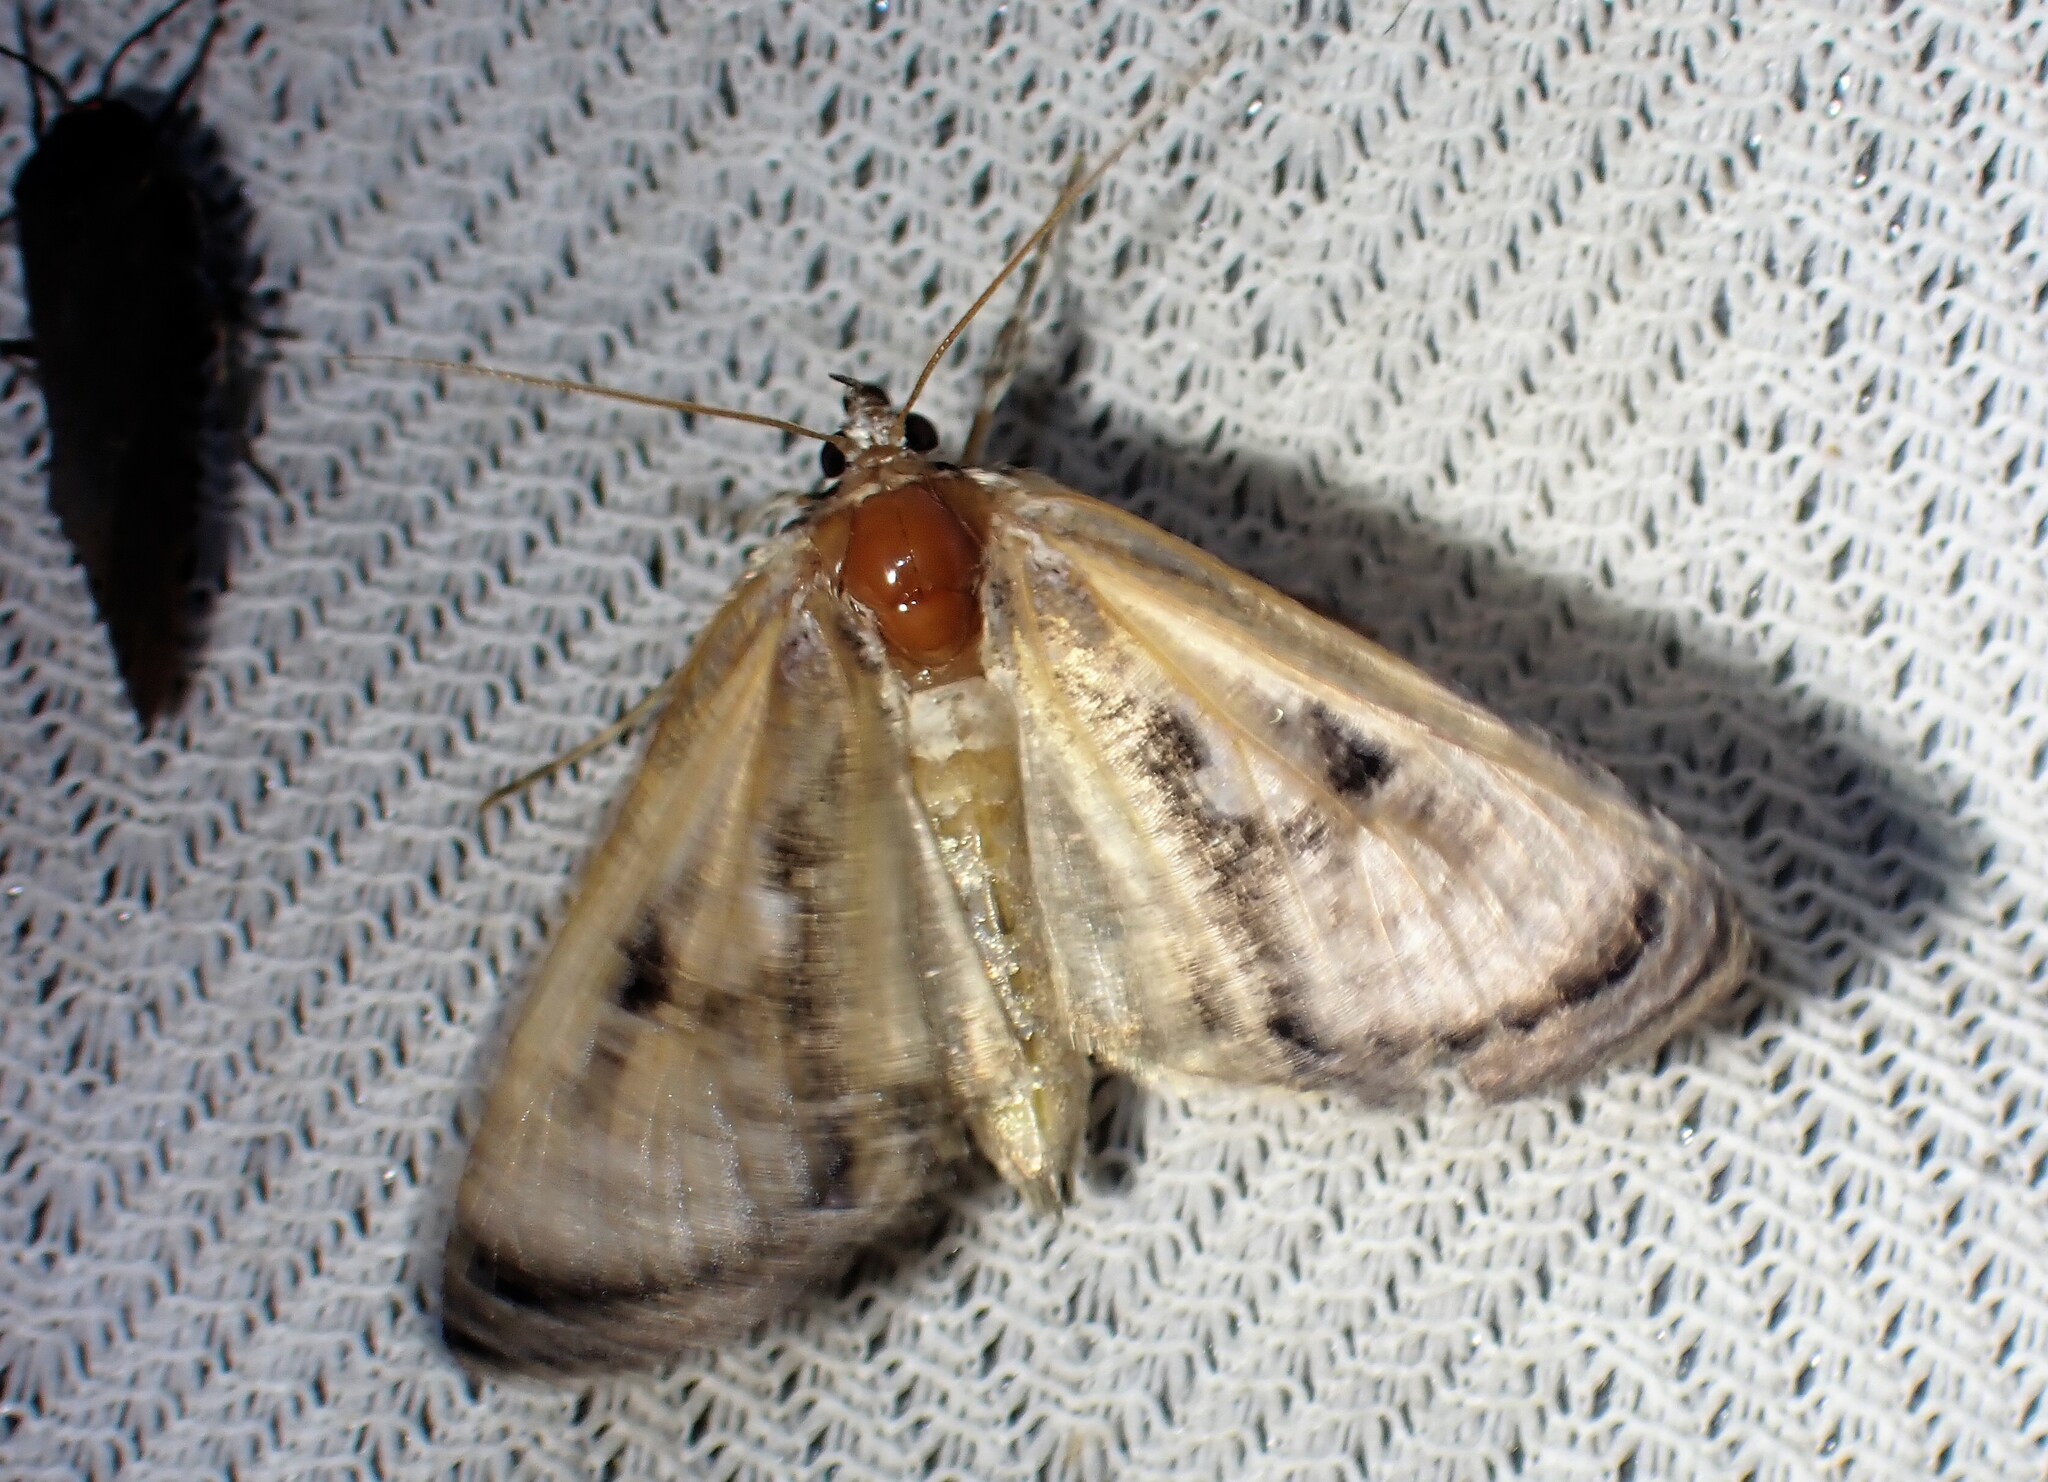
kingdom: Animalia
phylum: Arthropoda
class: Insecta
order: Lepidoptera
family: Noctuidae
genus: Chrysanympha
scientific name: Chrysanympha formosa
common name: Formosa looper moth
